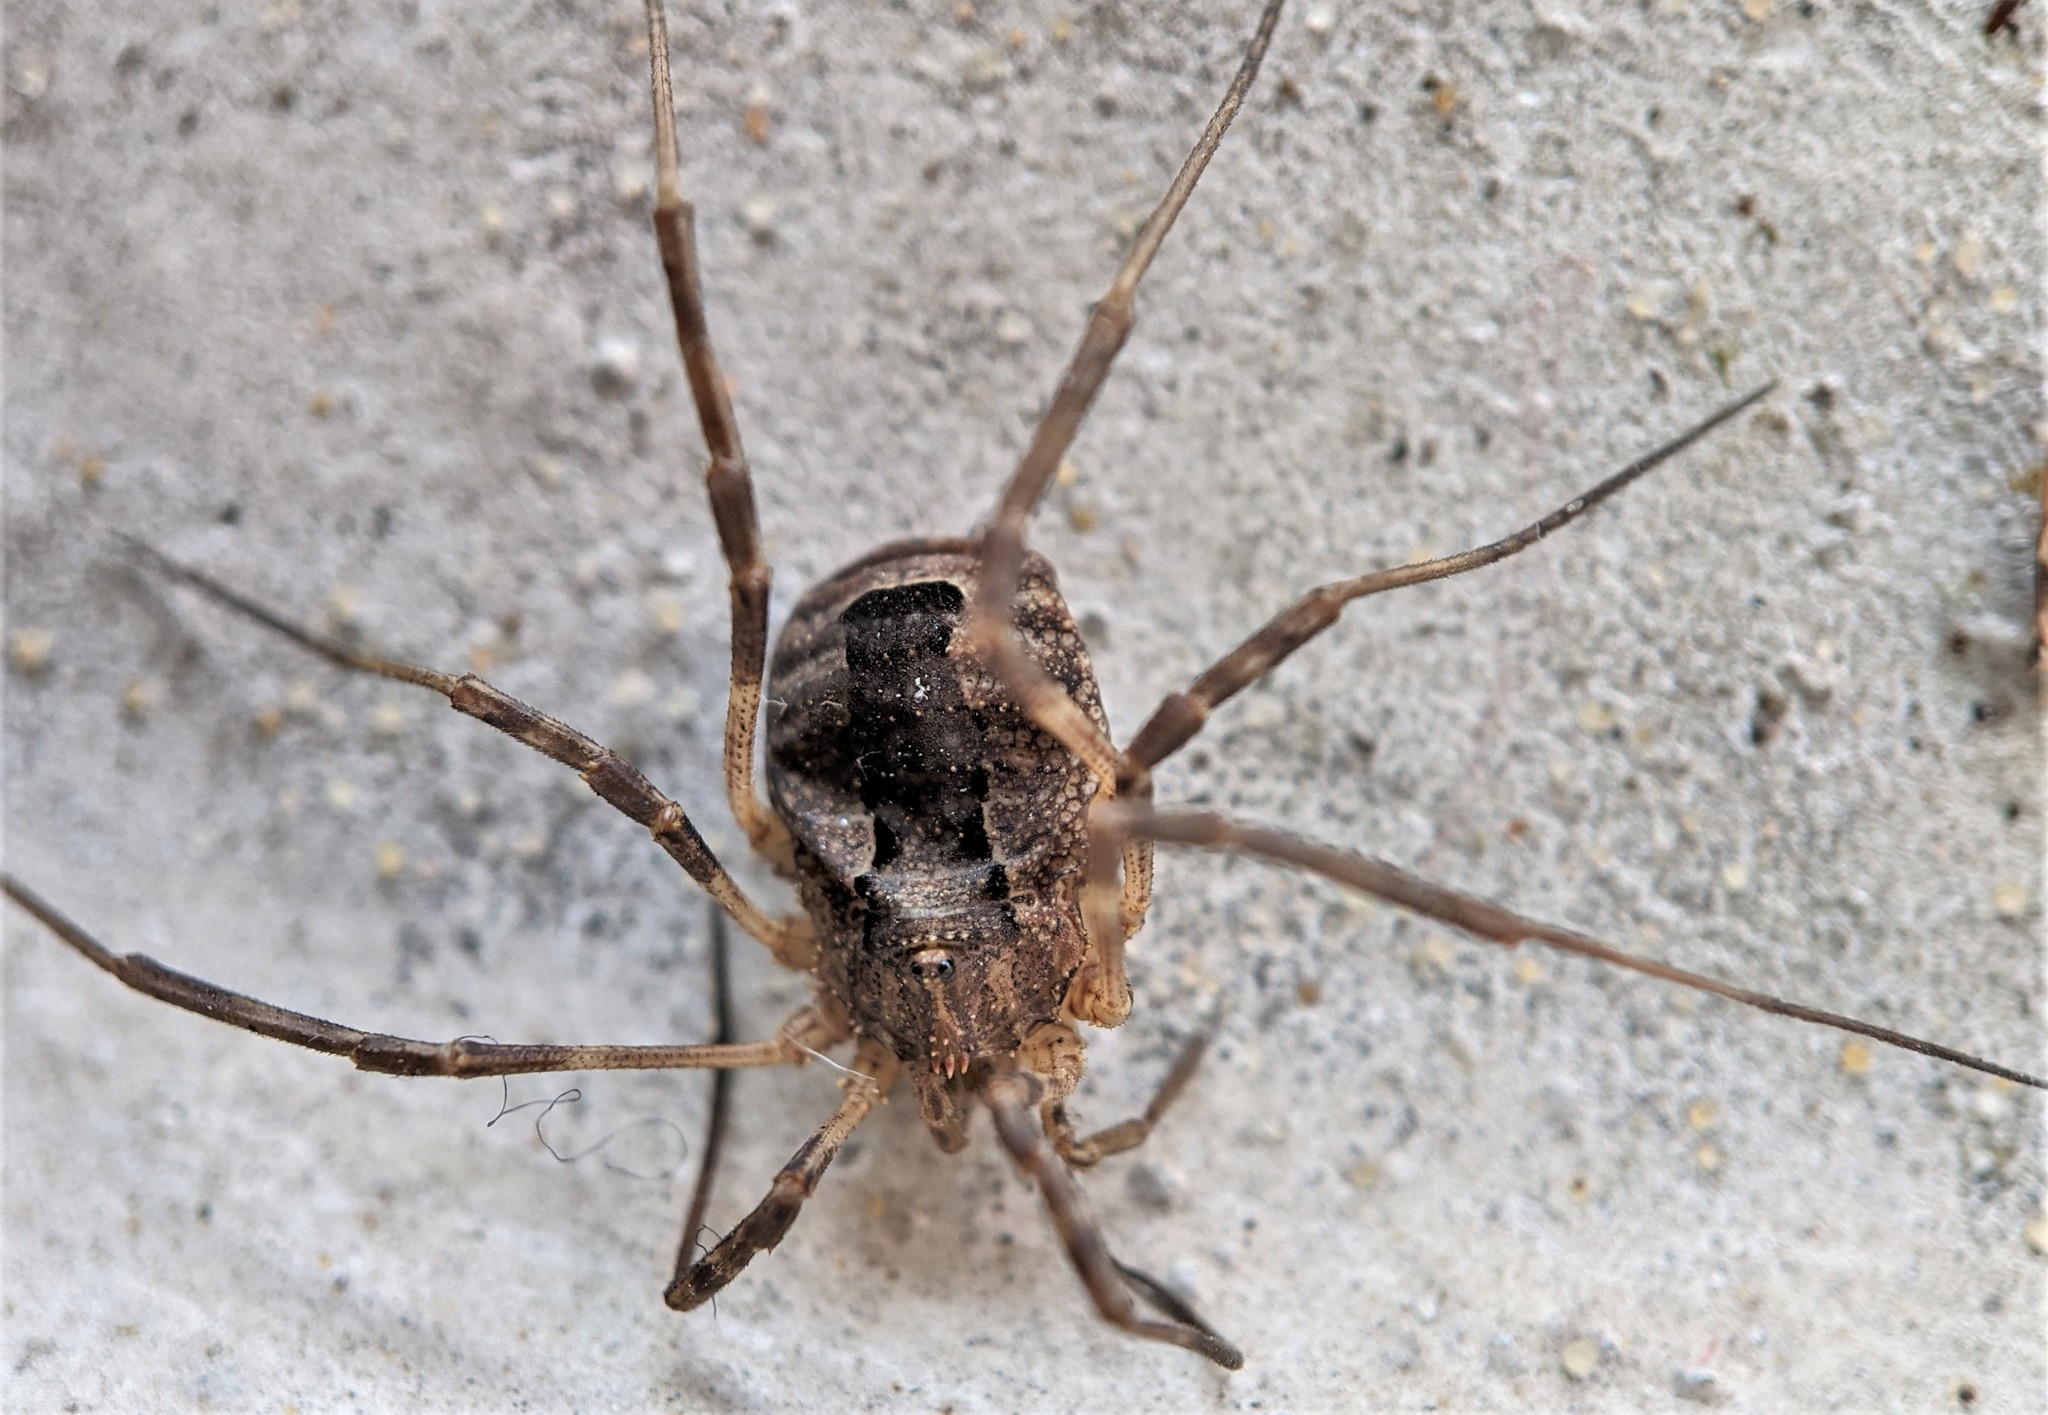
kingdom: Animalia
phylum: Arthropoda
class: Arachnida
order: Opiliones
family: Phalangiidae
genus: Odiellus
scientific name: Odiellus spinosus
